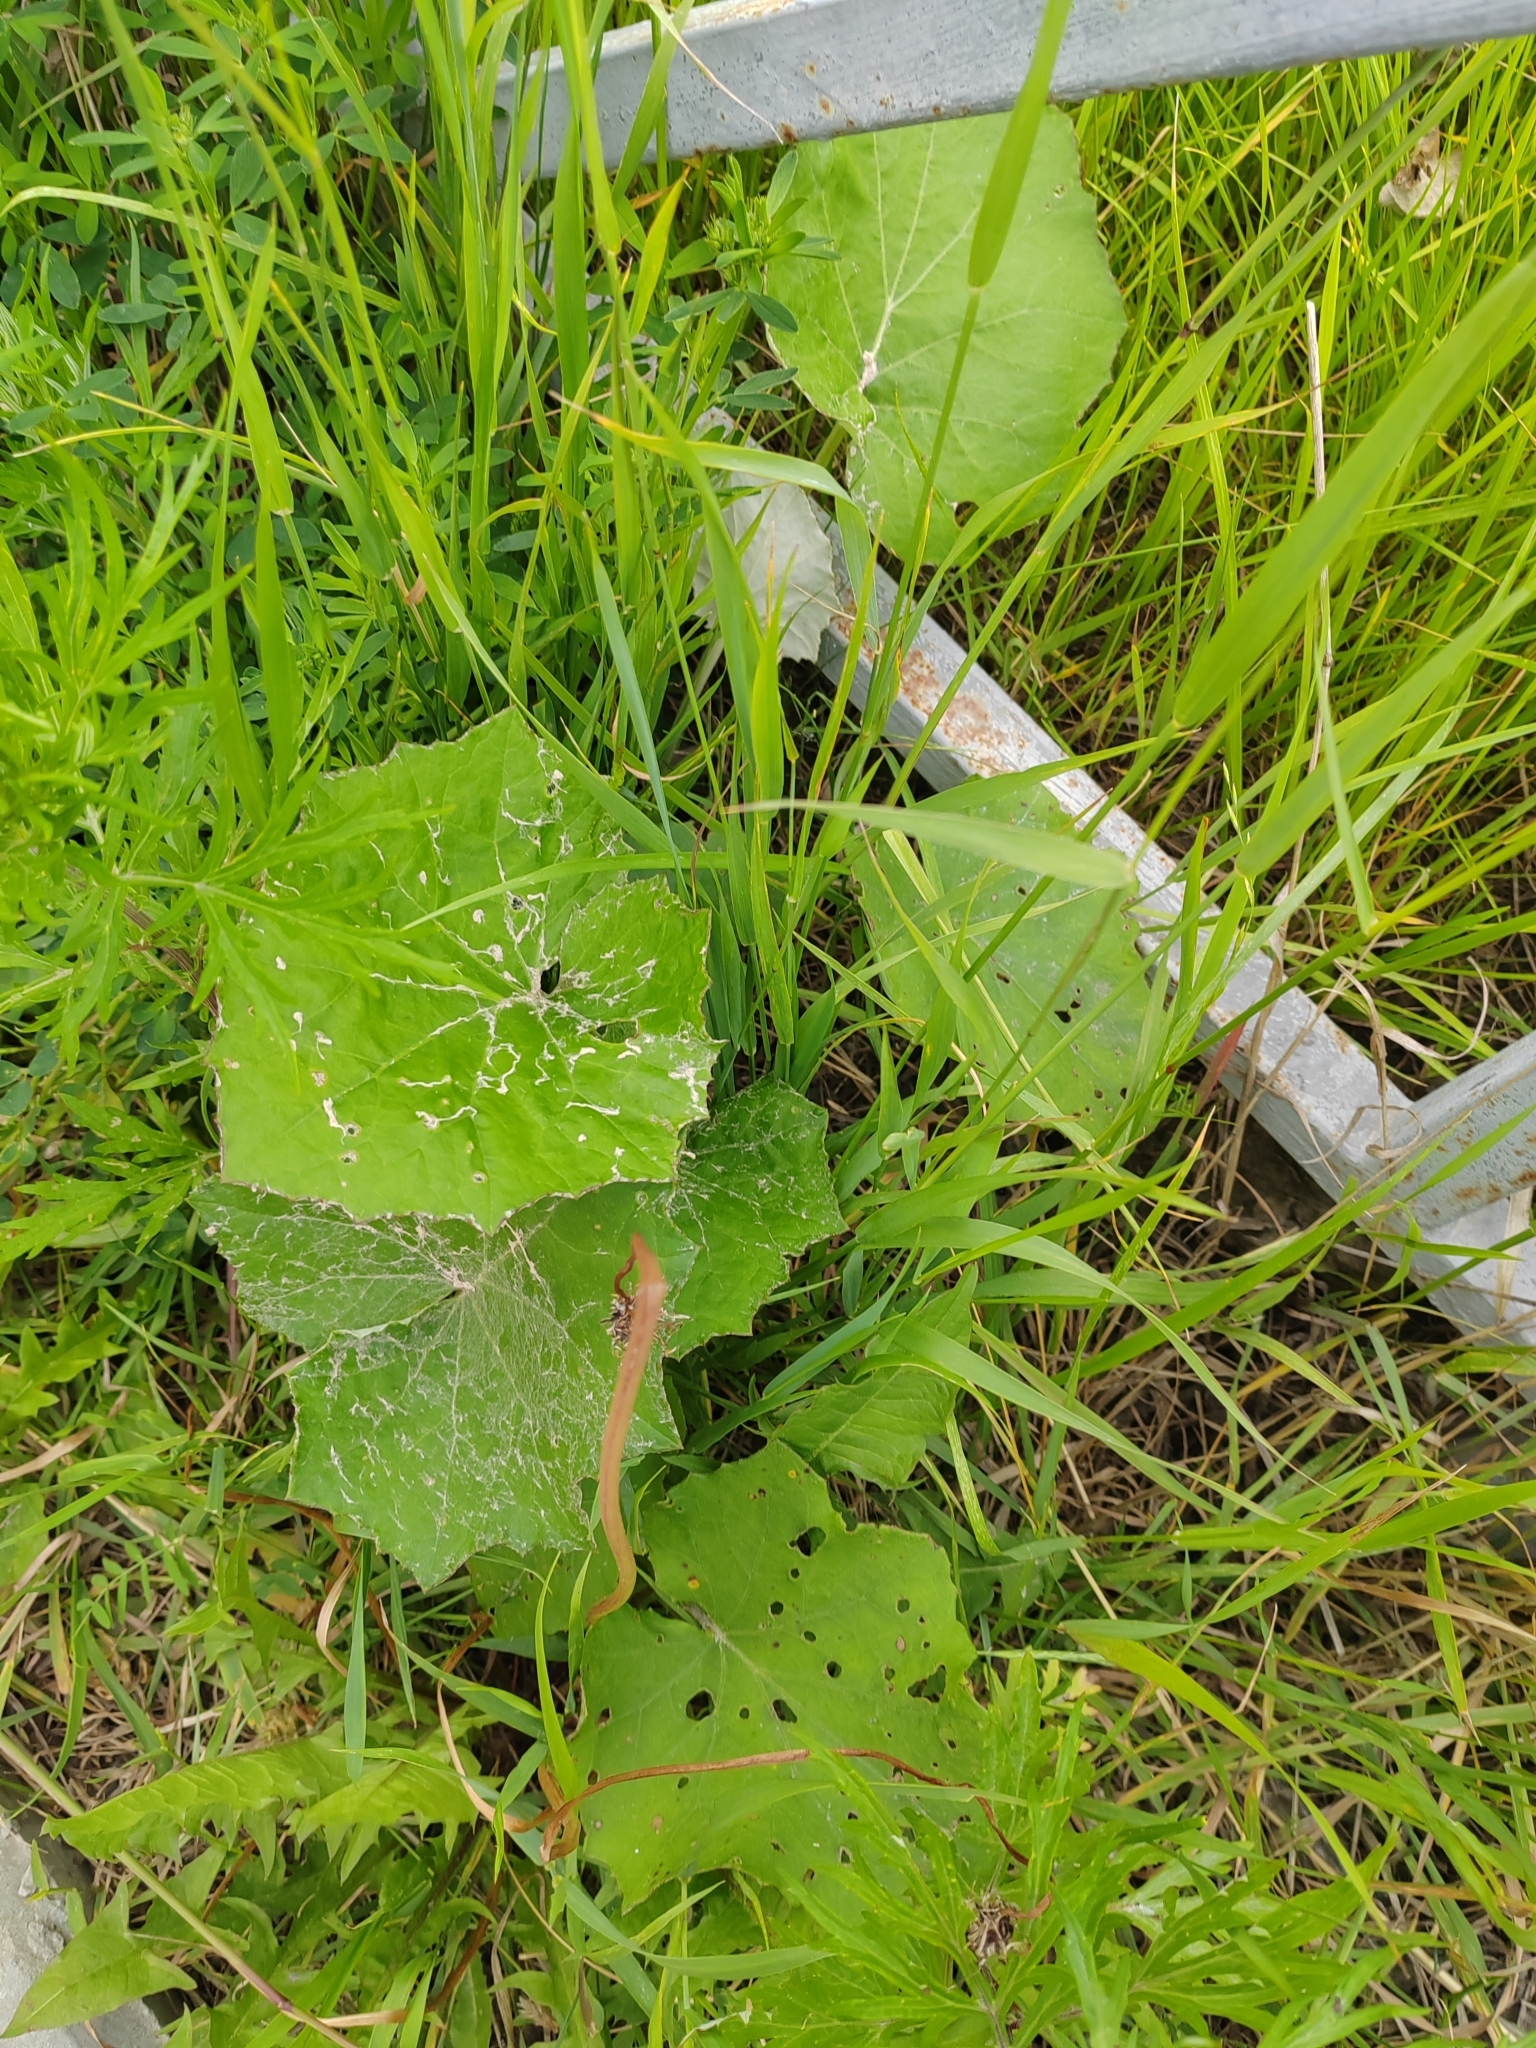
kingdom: Plantae
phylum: Tracheophyta
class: Magnoliopsida
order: Asterales
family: Asteraceae
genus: Tussilago
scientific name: Tussilago farfara
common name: Coltsfoot
